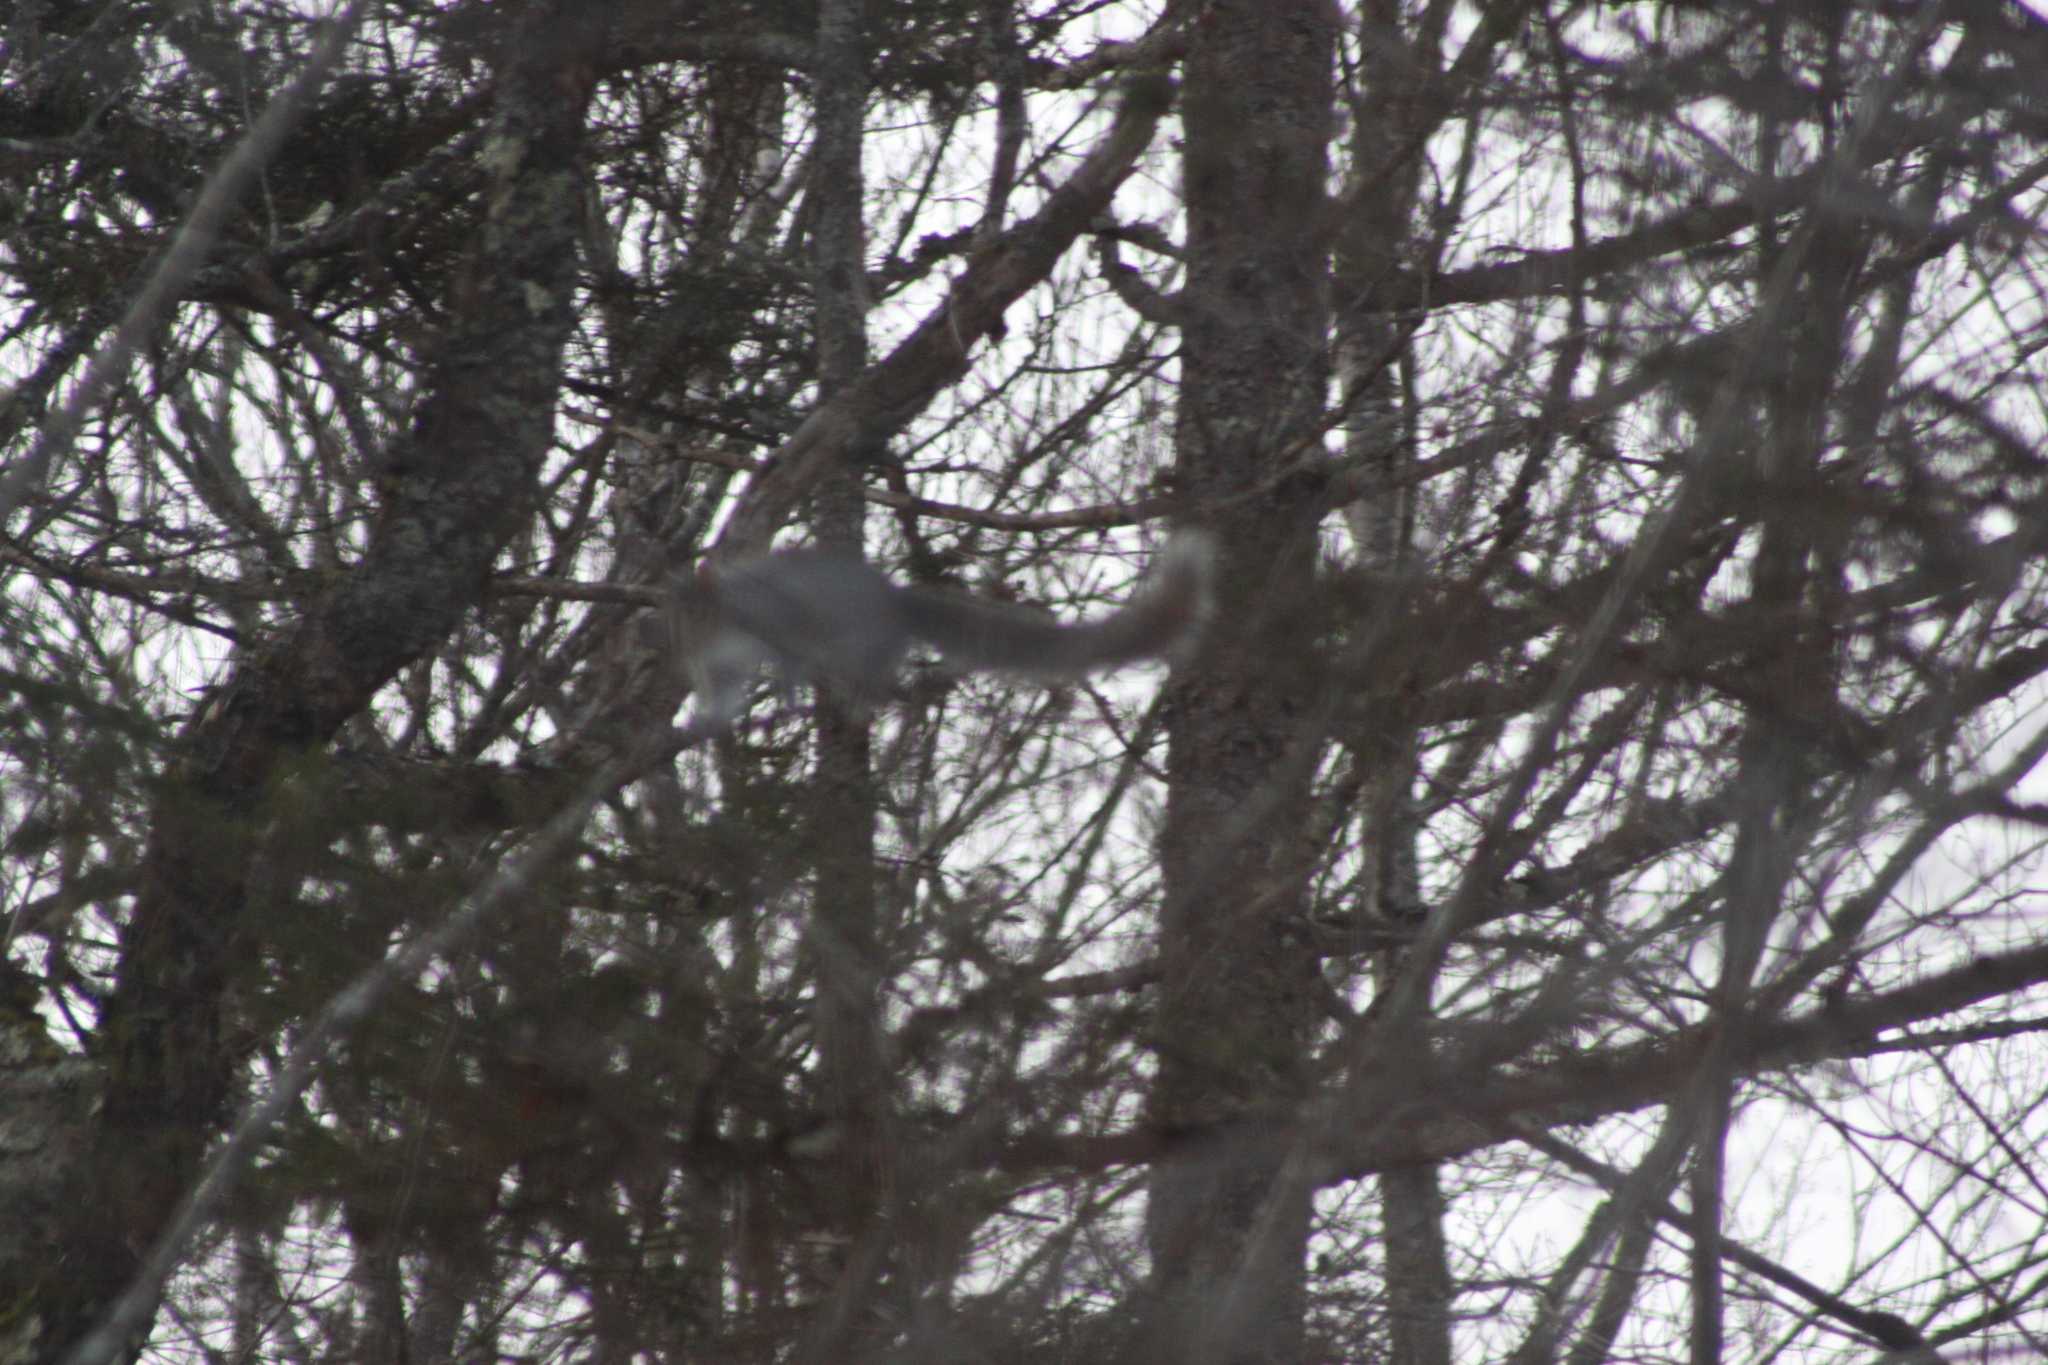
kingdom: Animalia
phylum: Chordata
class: Mammalia
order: Rodentia
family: Sciuridae
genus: Sciurus
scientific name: Sciurus carolinensis
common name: Eastern gray squirrel
